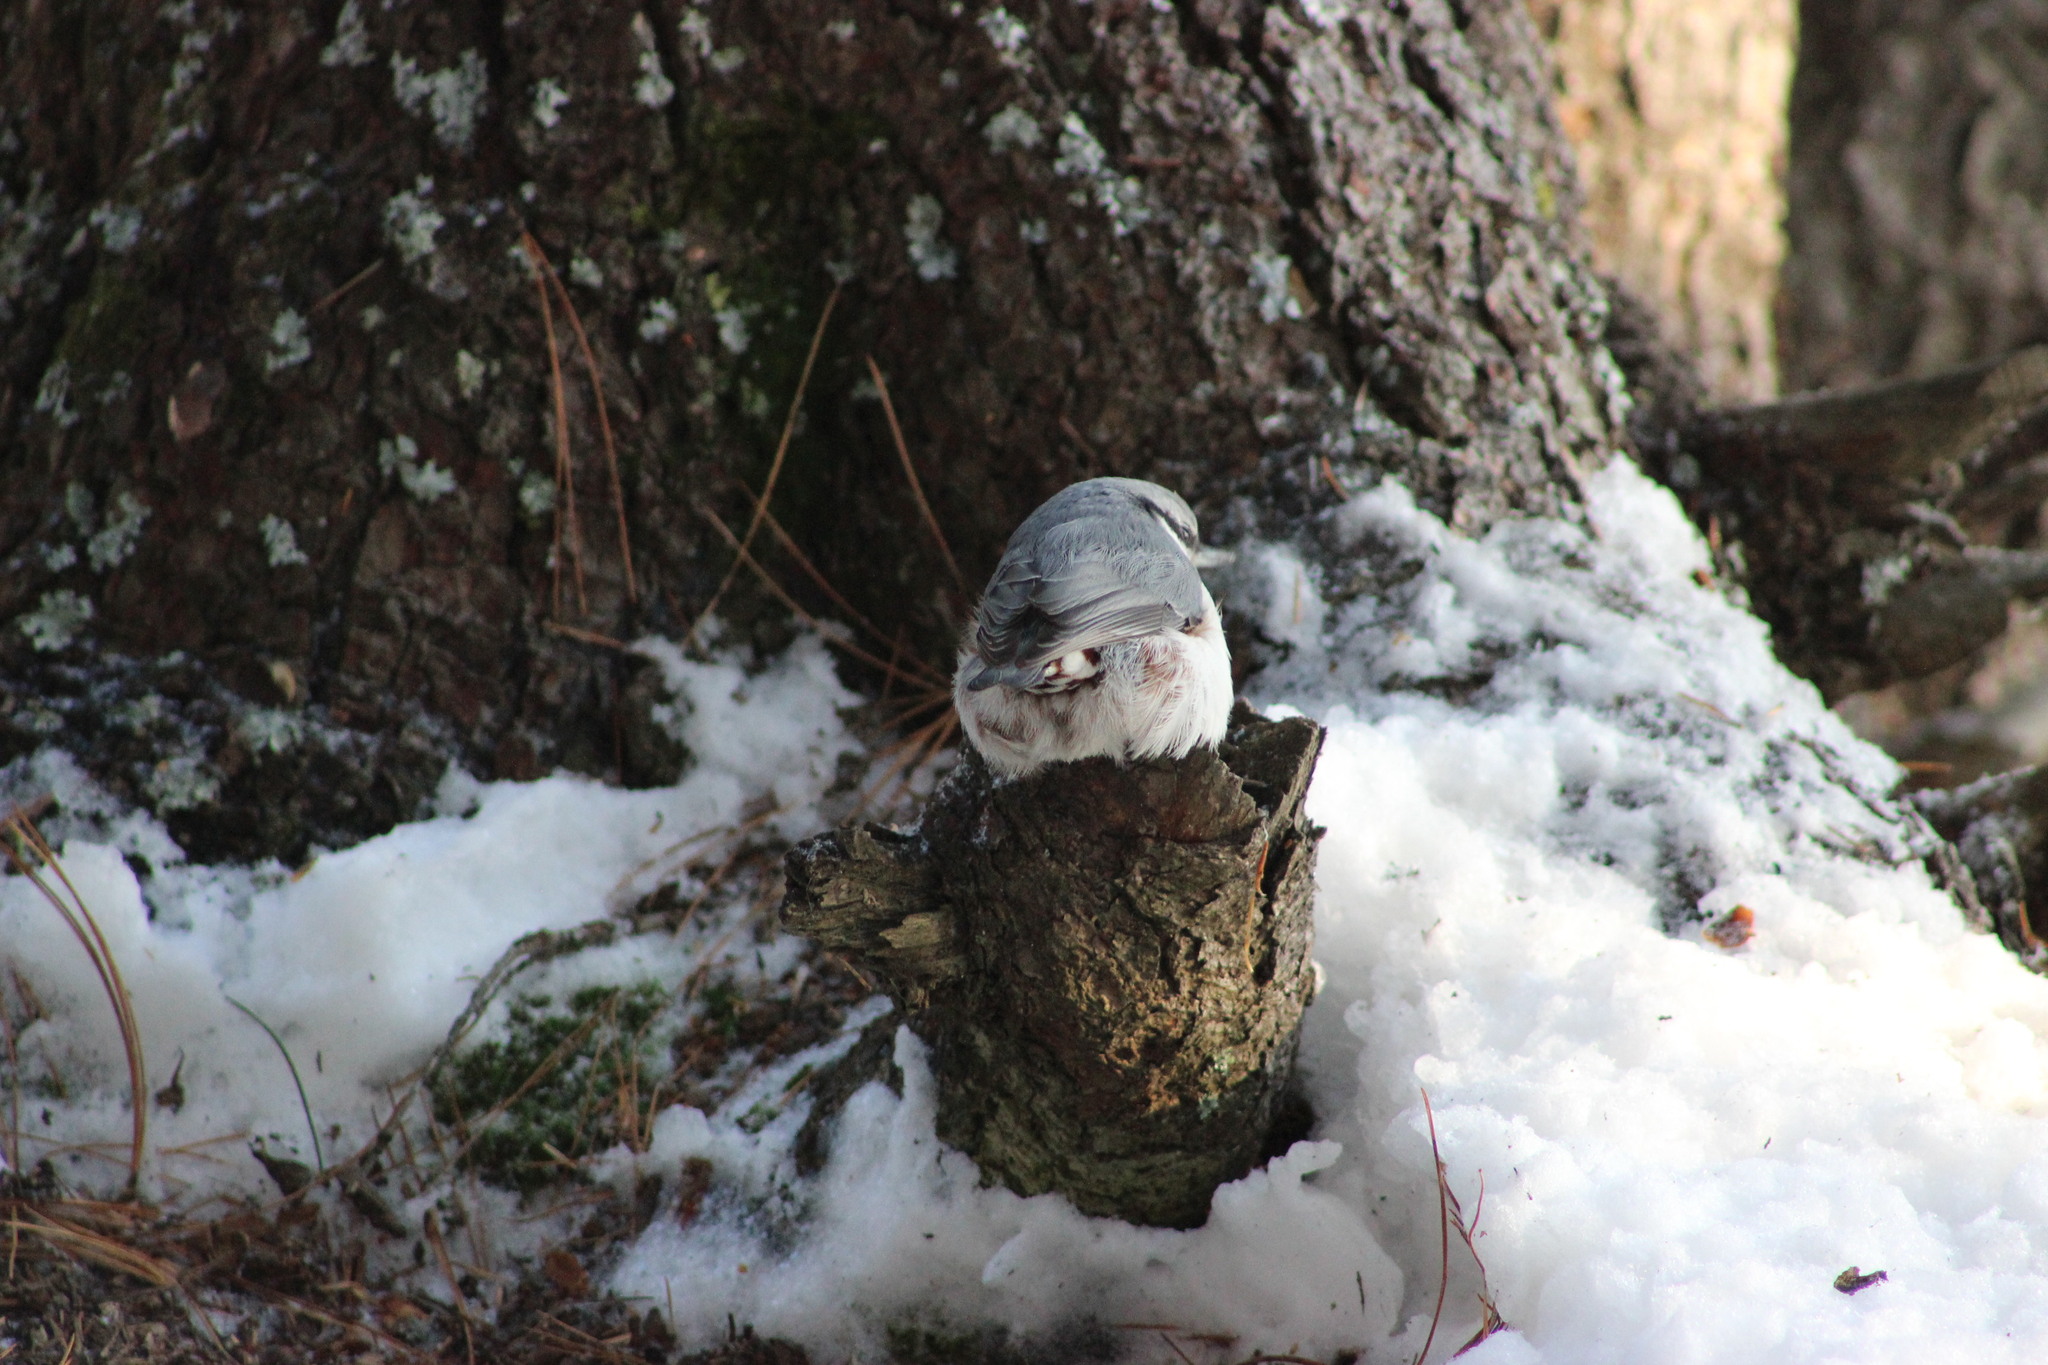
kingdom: Animalia
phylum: Chordata
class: Aves
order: Passeriformes
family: Sittidae
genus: Sitta
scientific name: Sitta europaea
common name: Eurasian nuthatch
